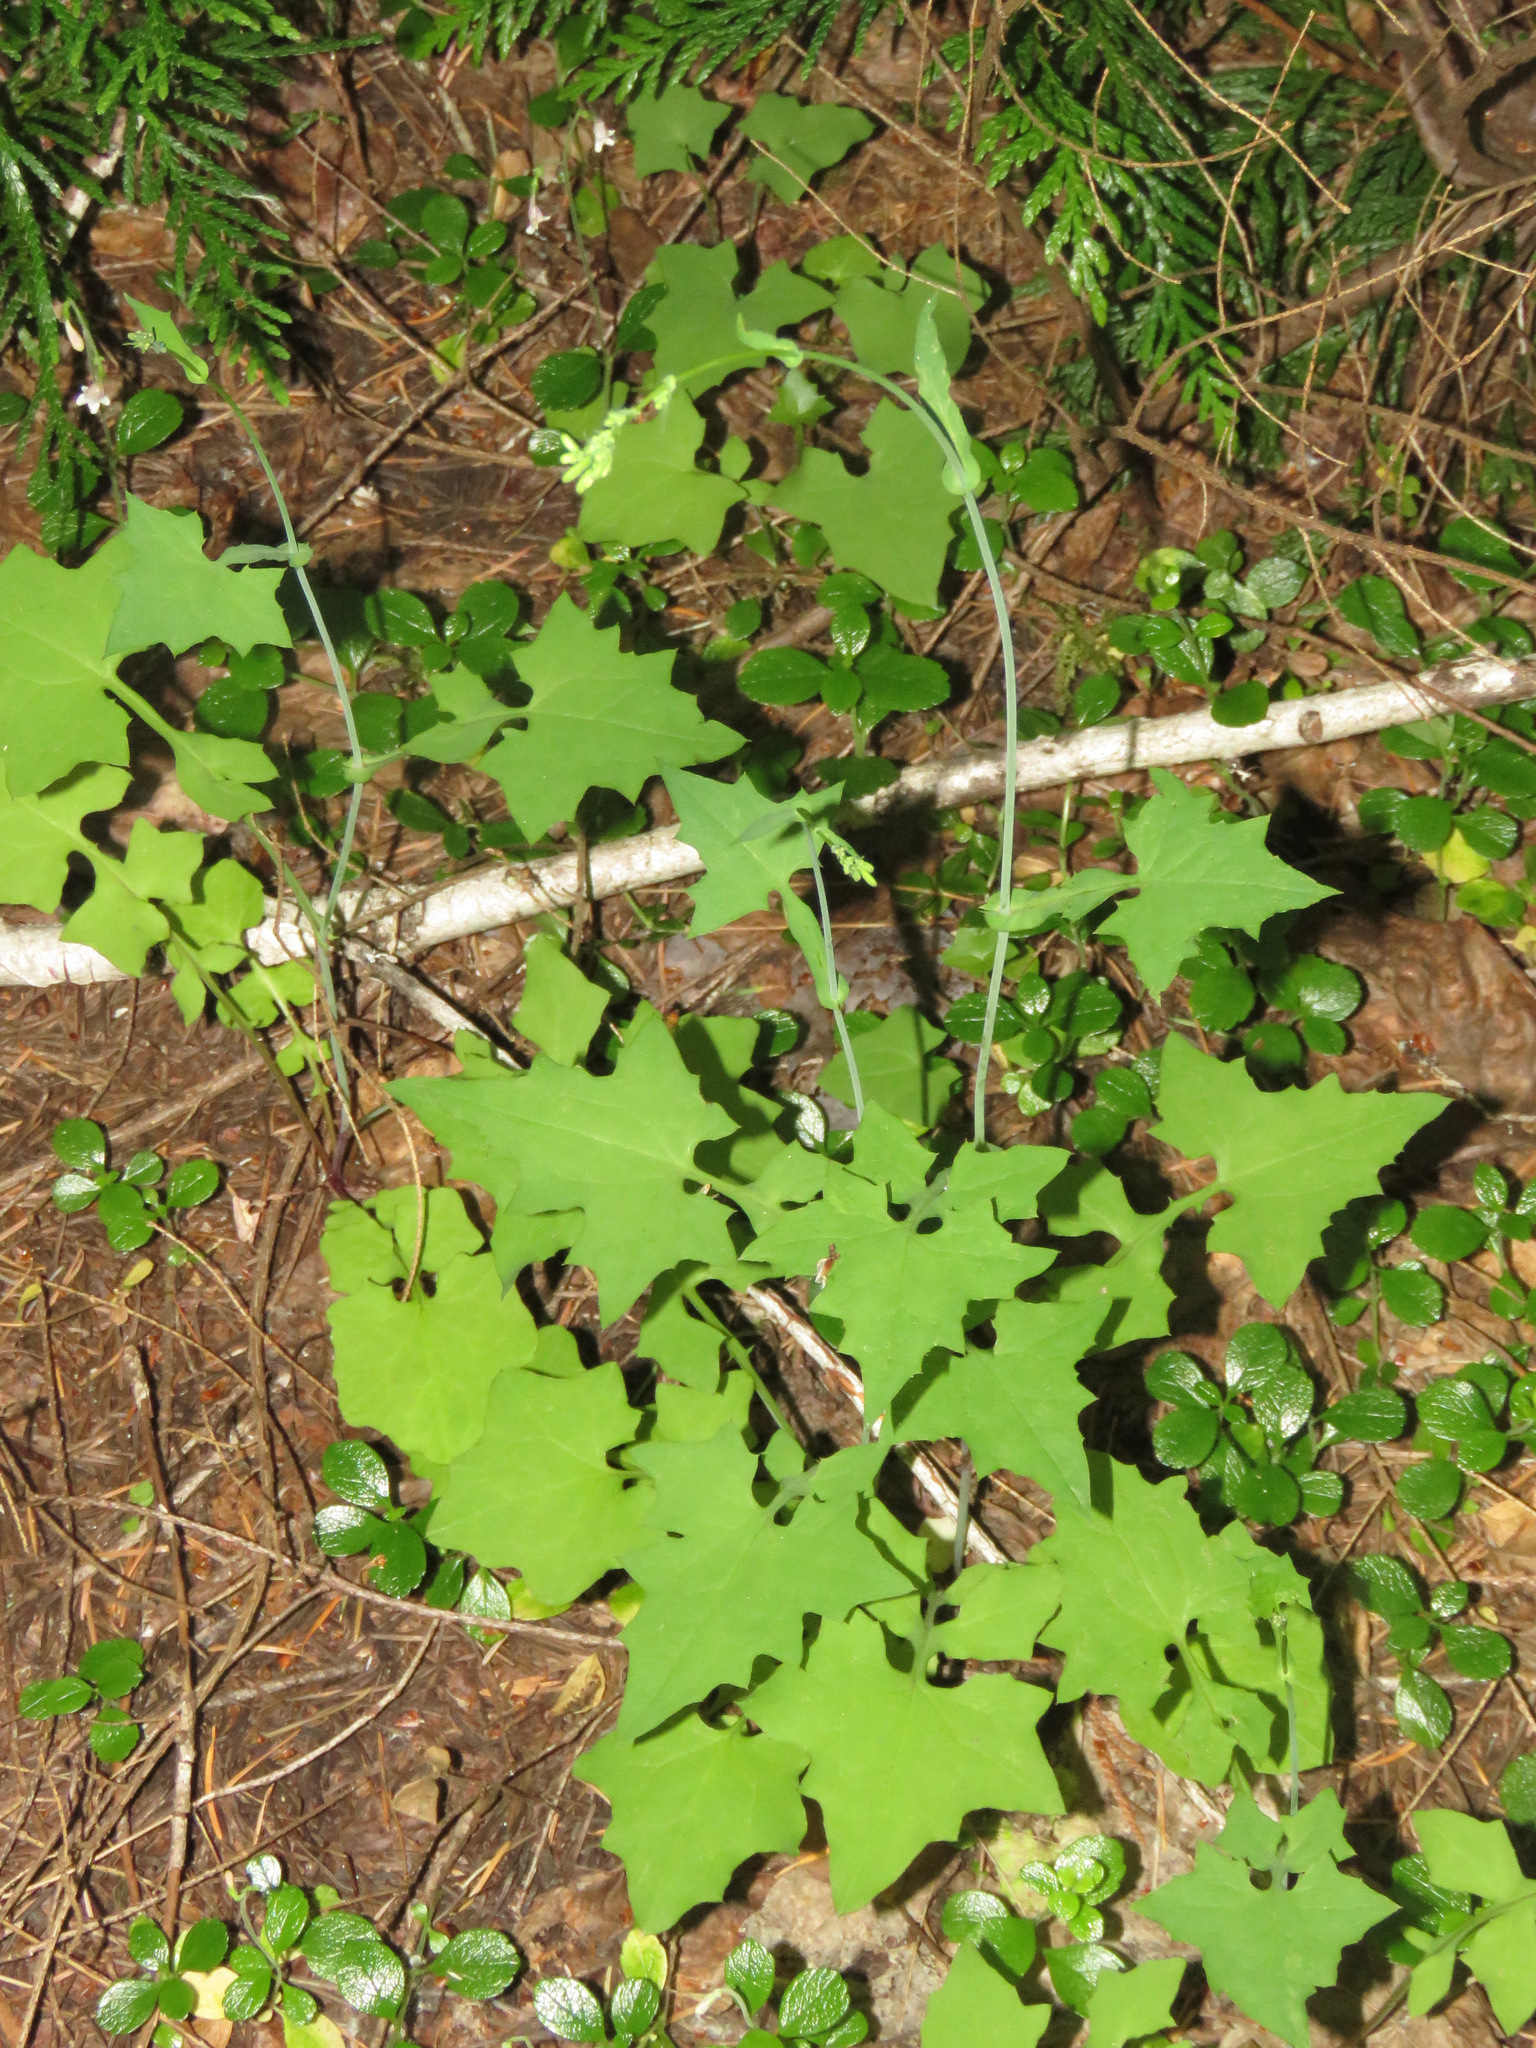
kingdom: Plantae
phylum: Tracheophyta
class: Magnoliopsida
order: Asterales
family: Asteraceae
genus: Mycelis
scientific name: Mycelis muralis
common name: Wall lettuce
